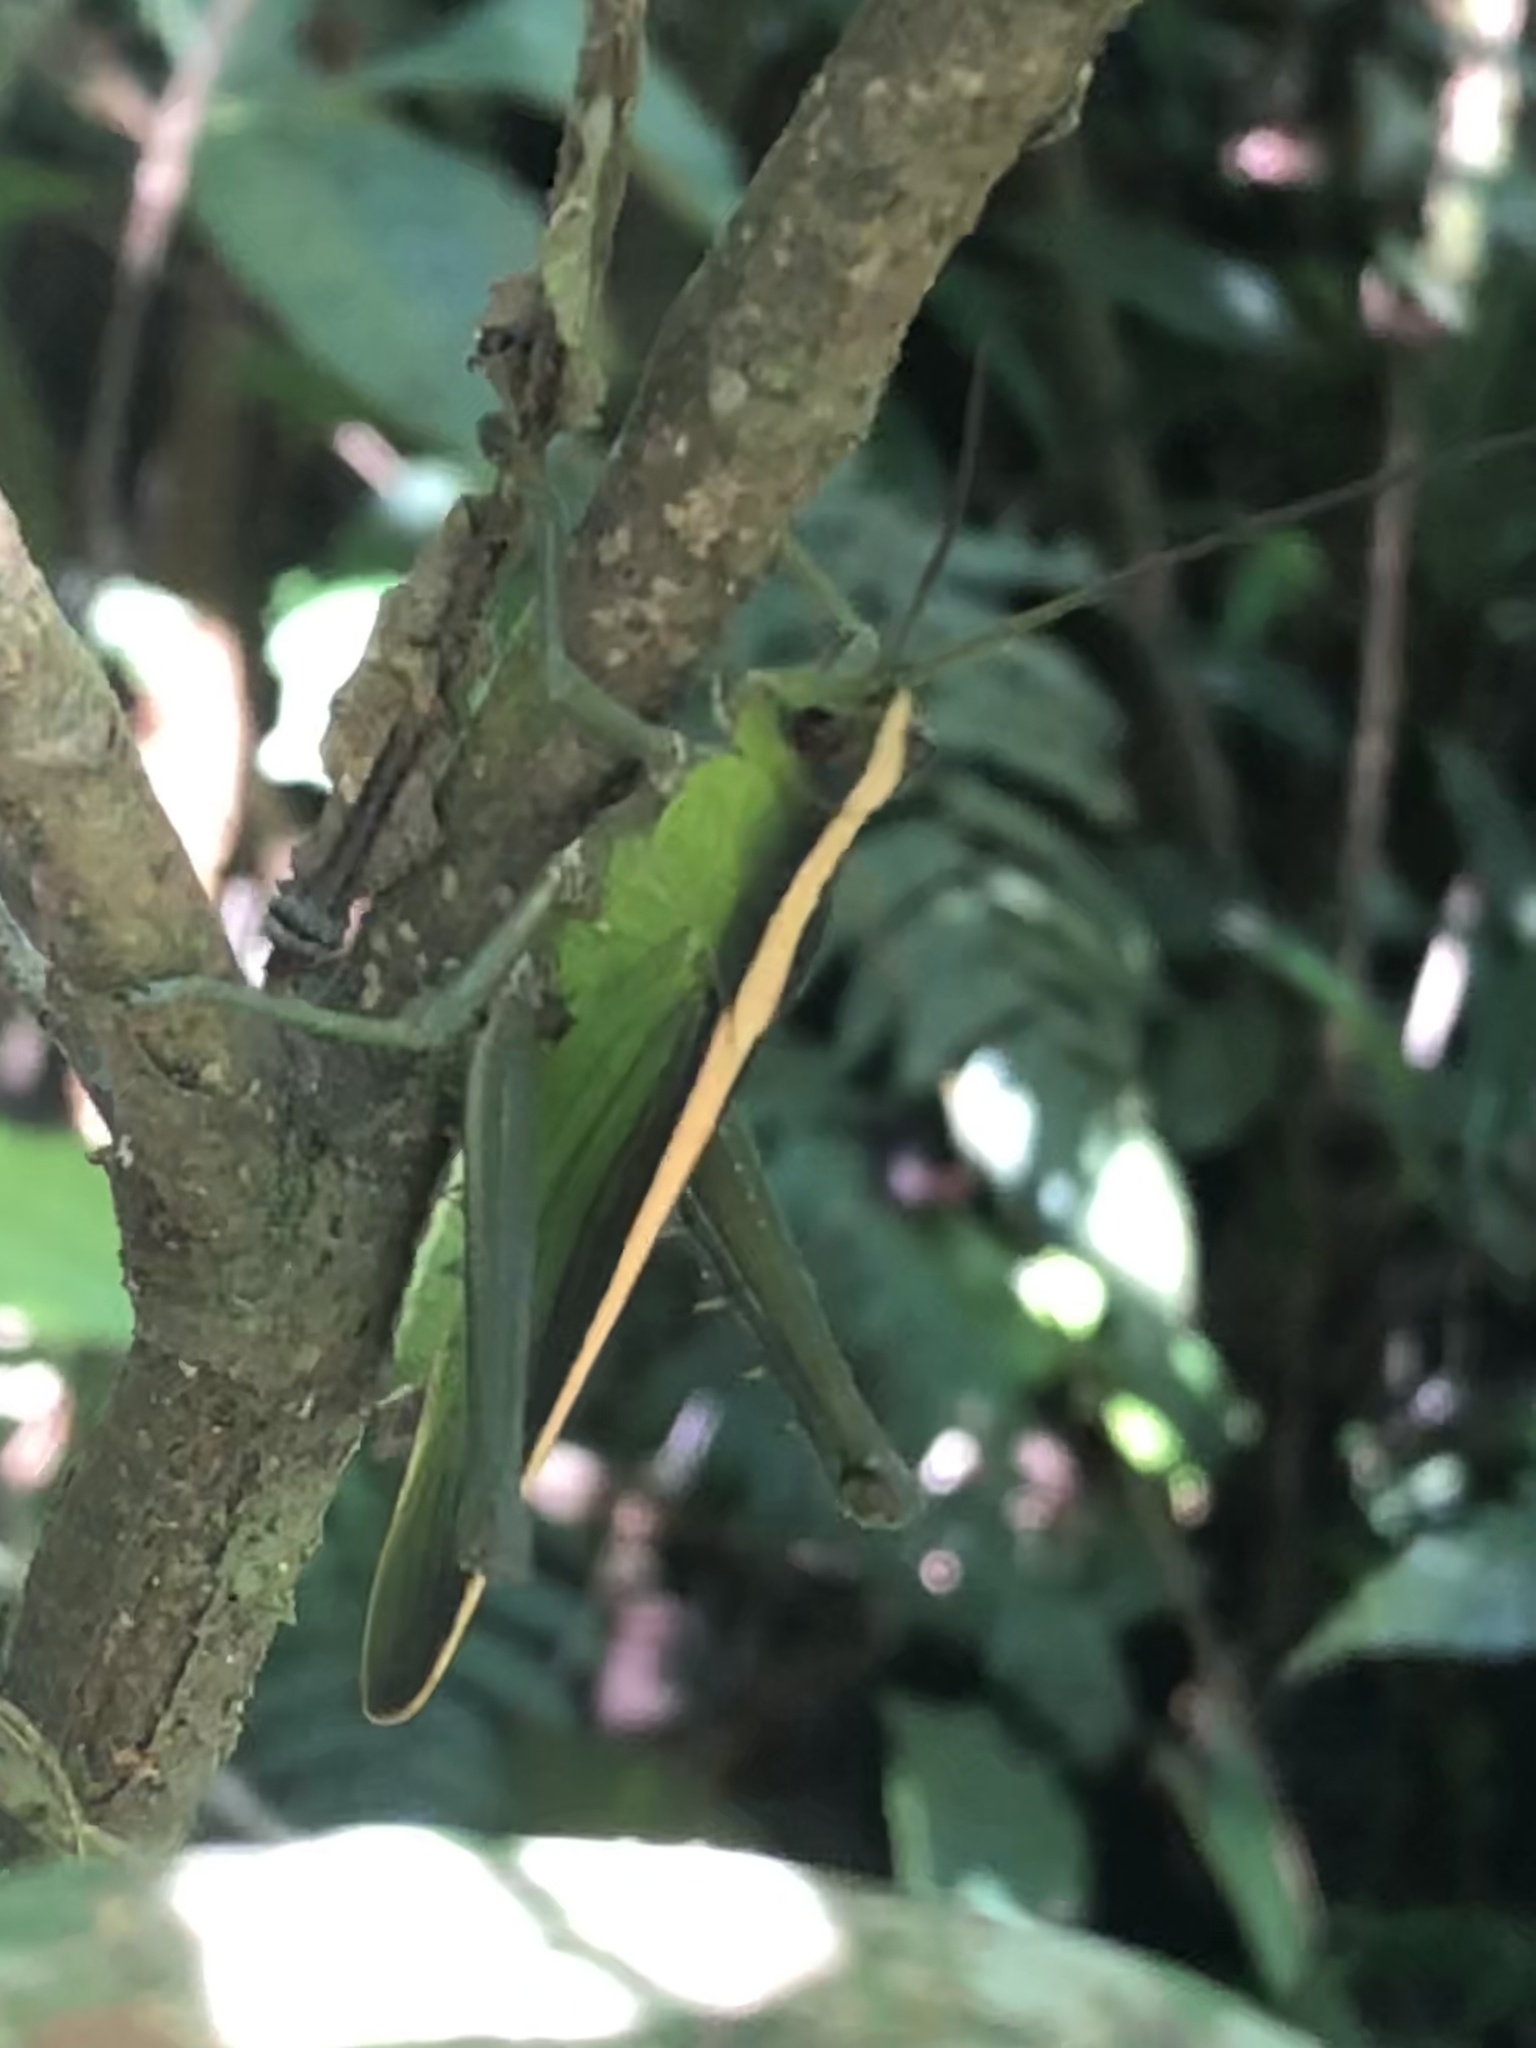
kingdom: Animalia
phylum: Arthropoda
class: Insecta
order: Orthoptera
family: Romaleidae
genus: Agriacris
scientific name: Agriacris auripennis
